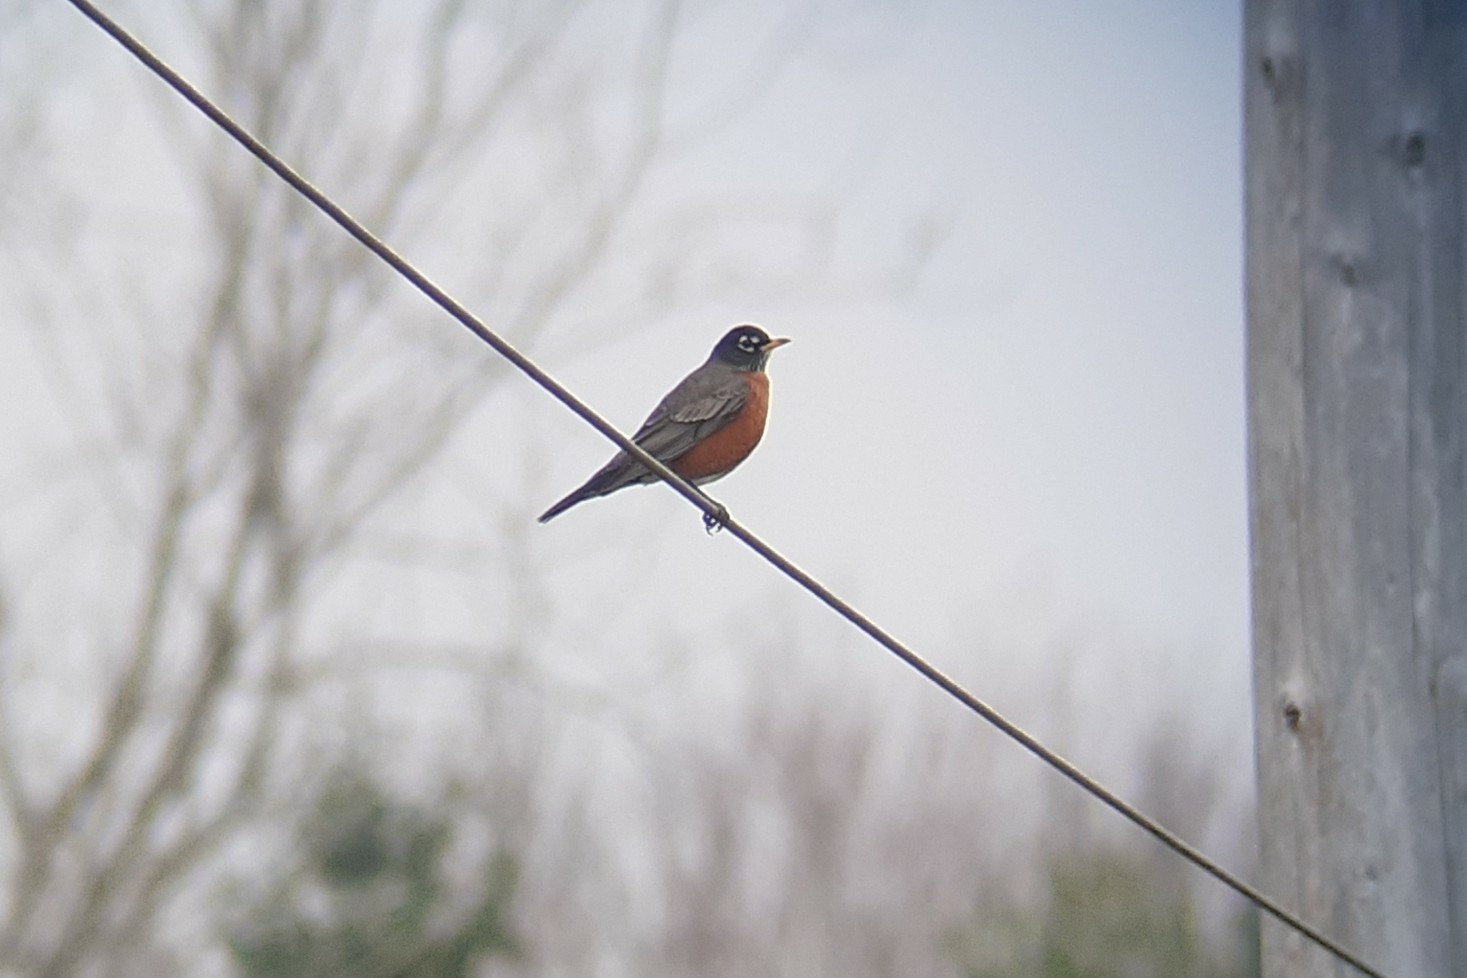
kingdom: Animalia
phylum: Chordata
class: Aves
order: Passeriformes
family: Turdidae
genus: Turdus
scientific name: Turdus migratorius
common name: American robin
